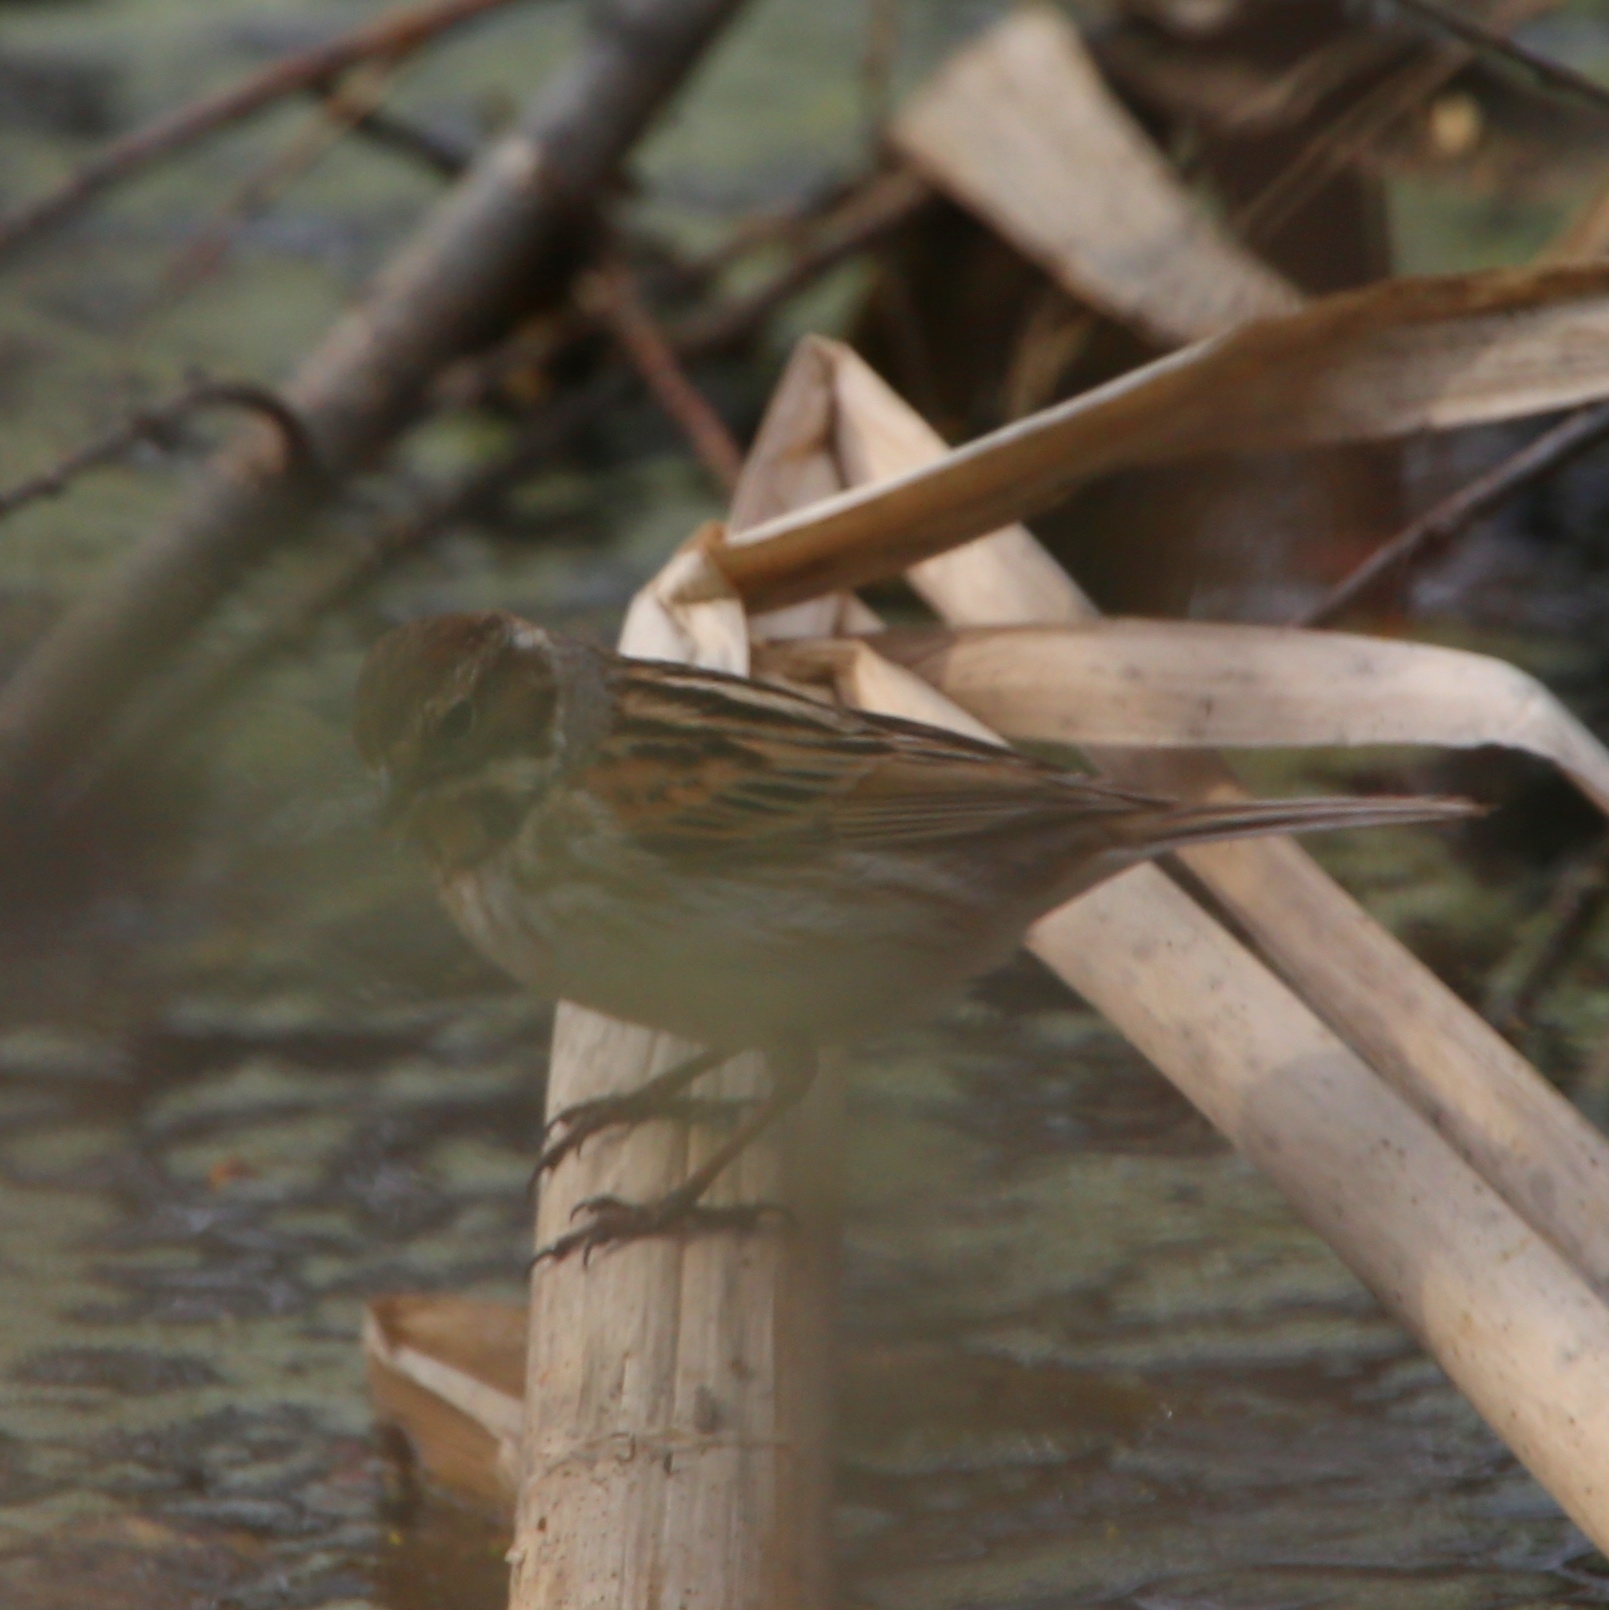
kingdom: Animalia
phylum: Chordata
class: Aves
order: Passeriformes
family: Emberizidae
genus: Emberiza
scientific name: Emberiza schoeniclus
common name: Reed bunting
